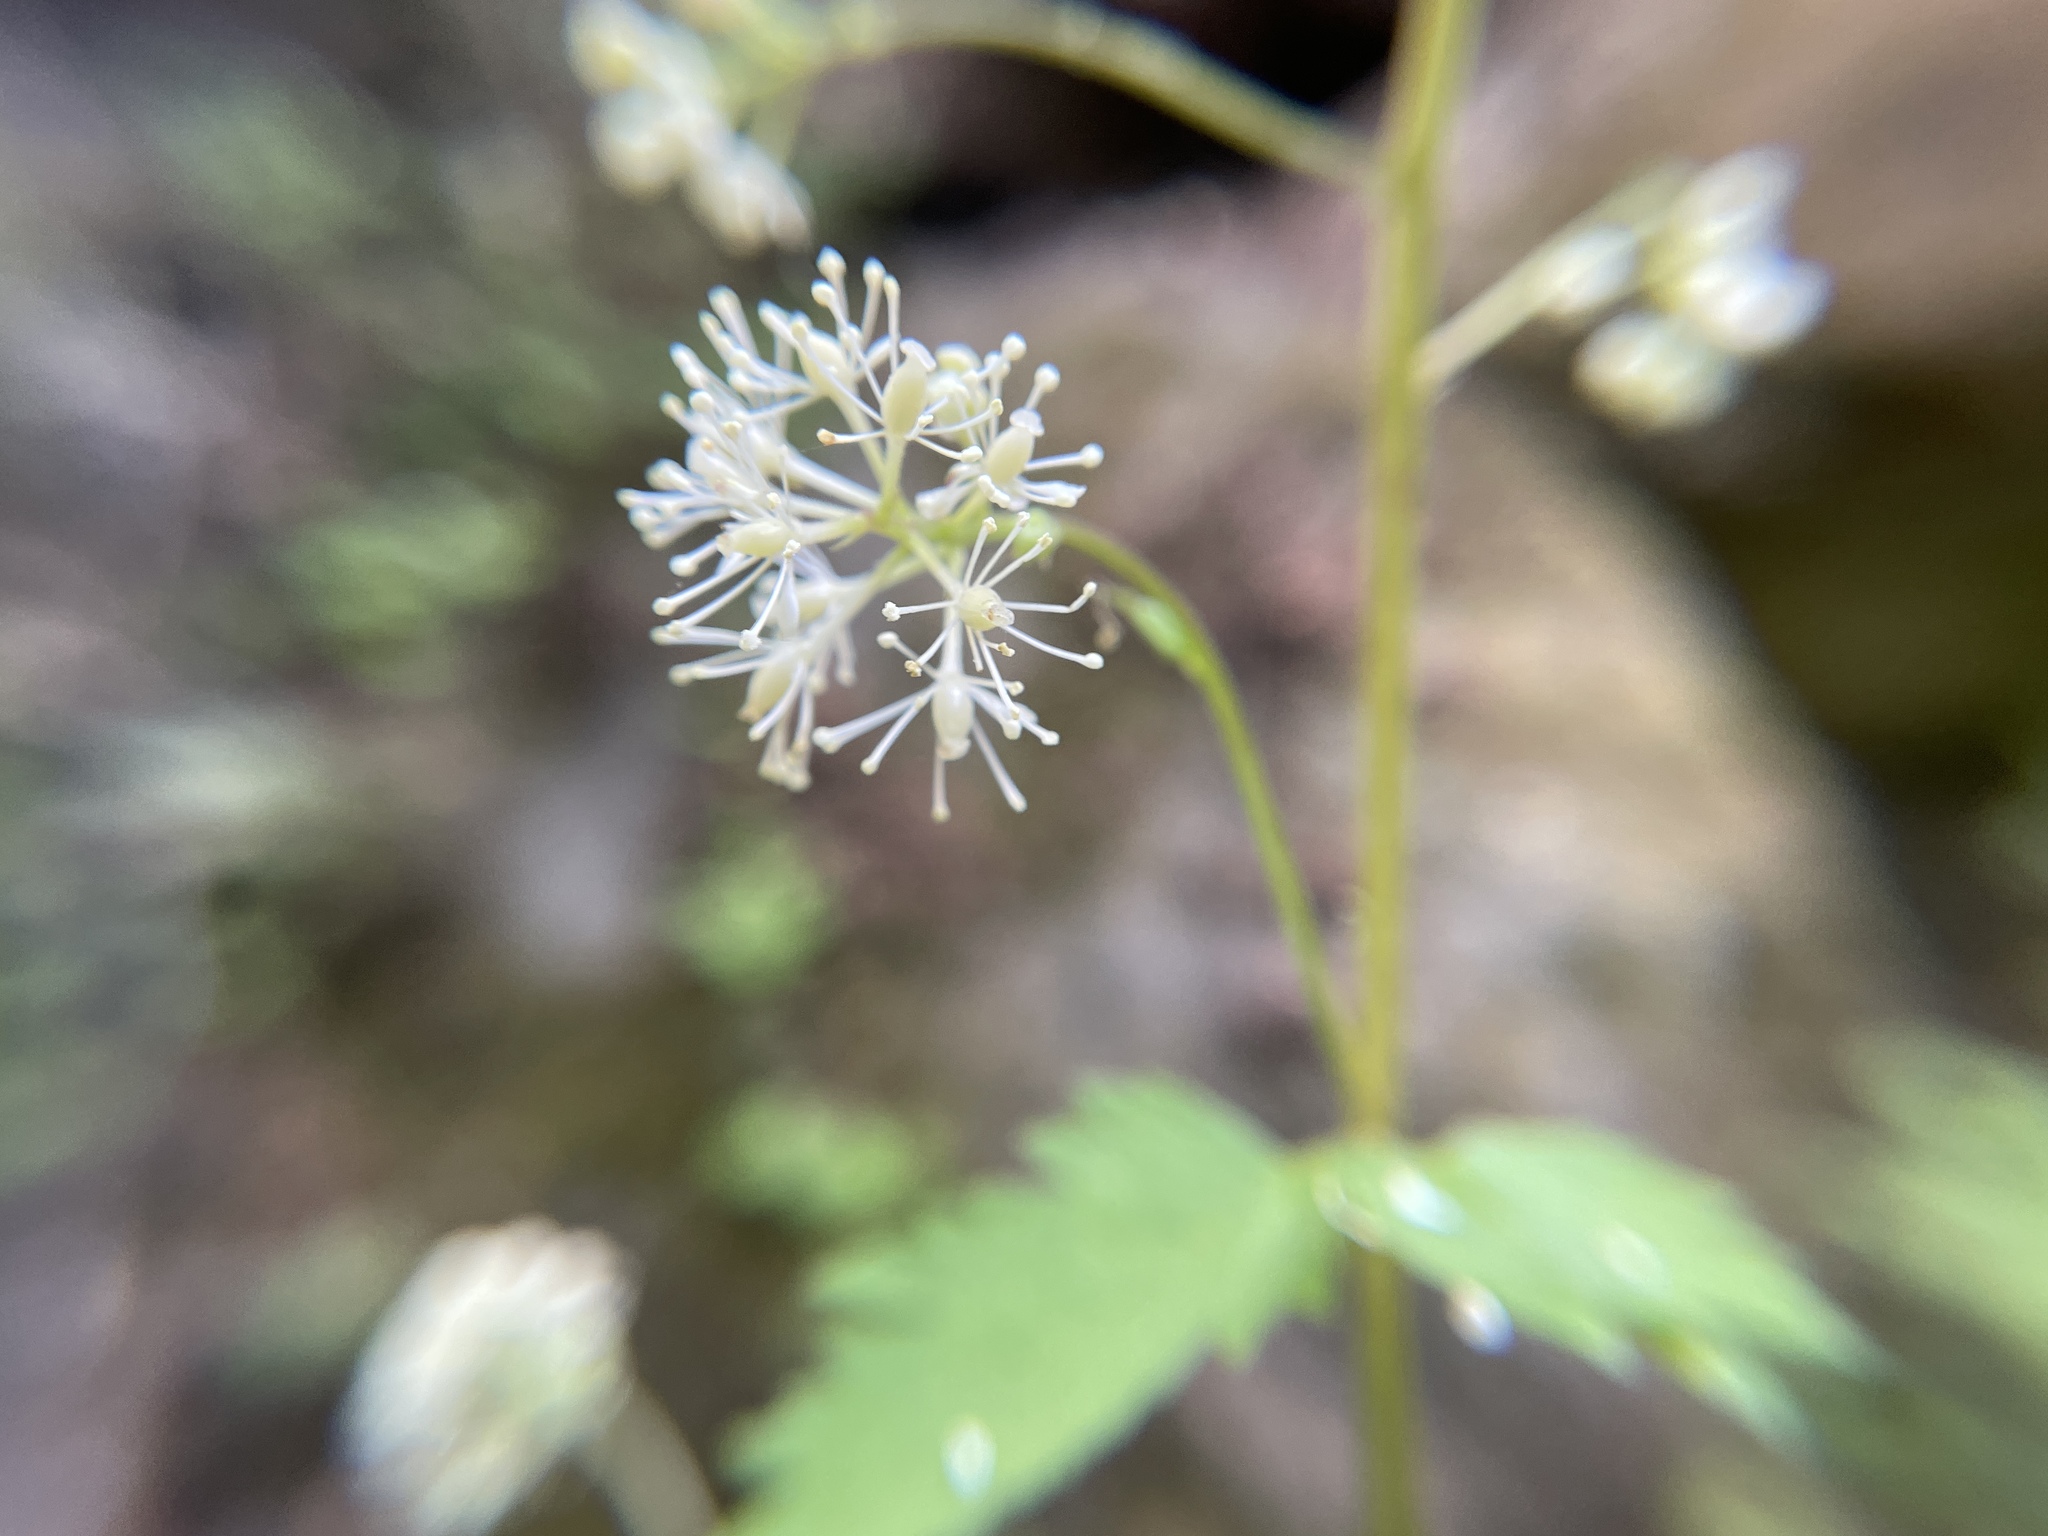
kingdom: Plantae
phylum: Tracheophyta
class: Magnoliopsida
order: Ranunculales
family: Ranunculaceae
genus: Actaea
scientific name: Actaea rubra
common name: Red baneberry
